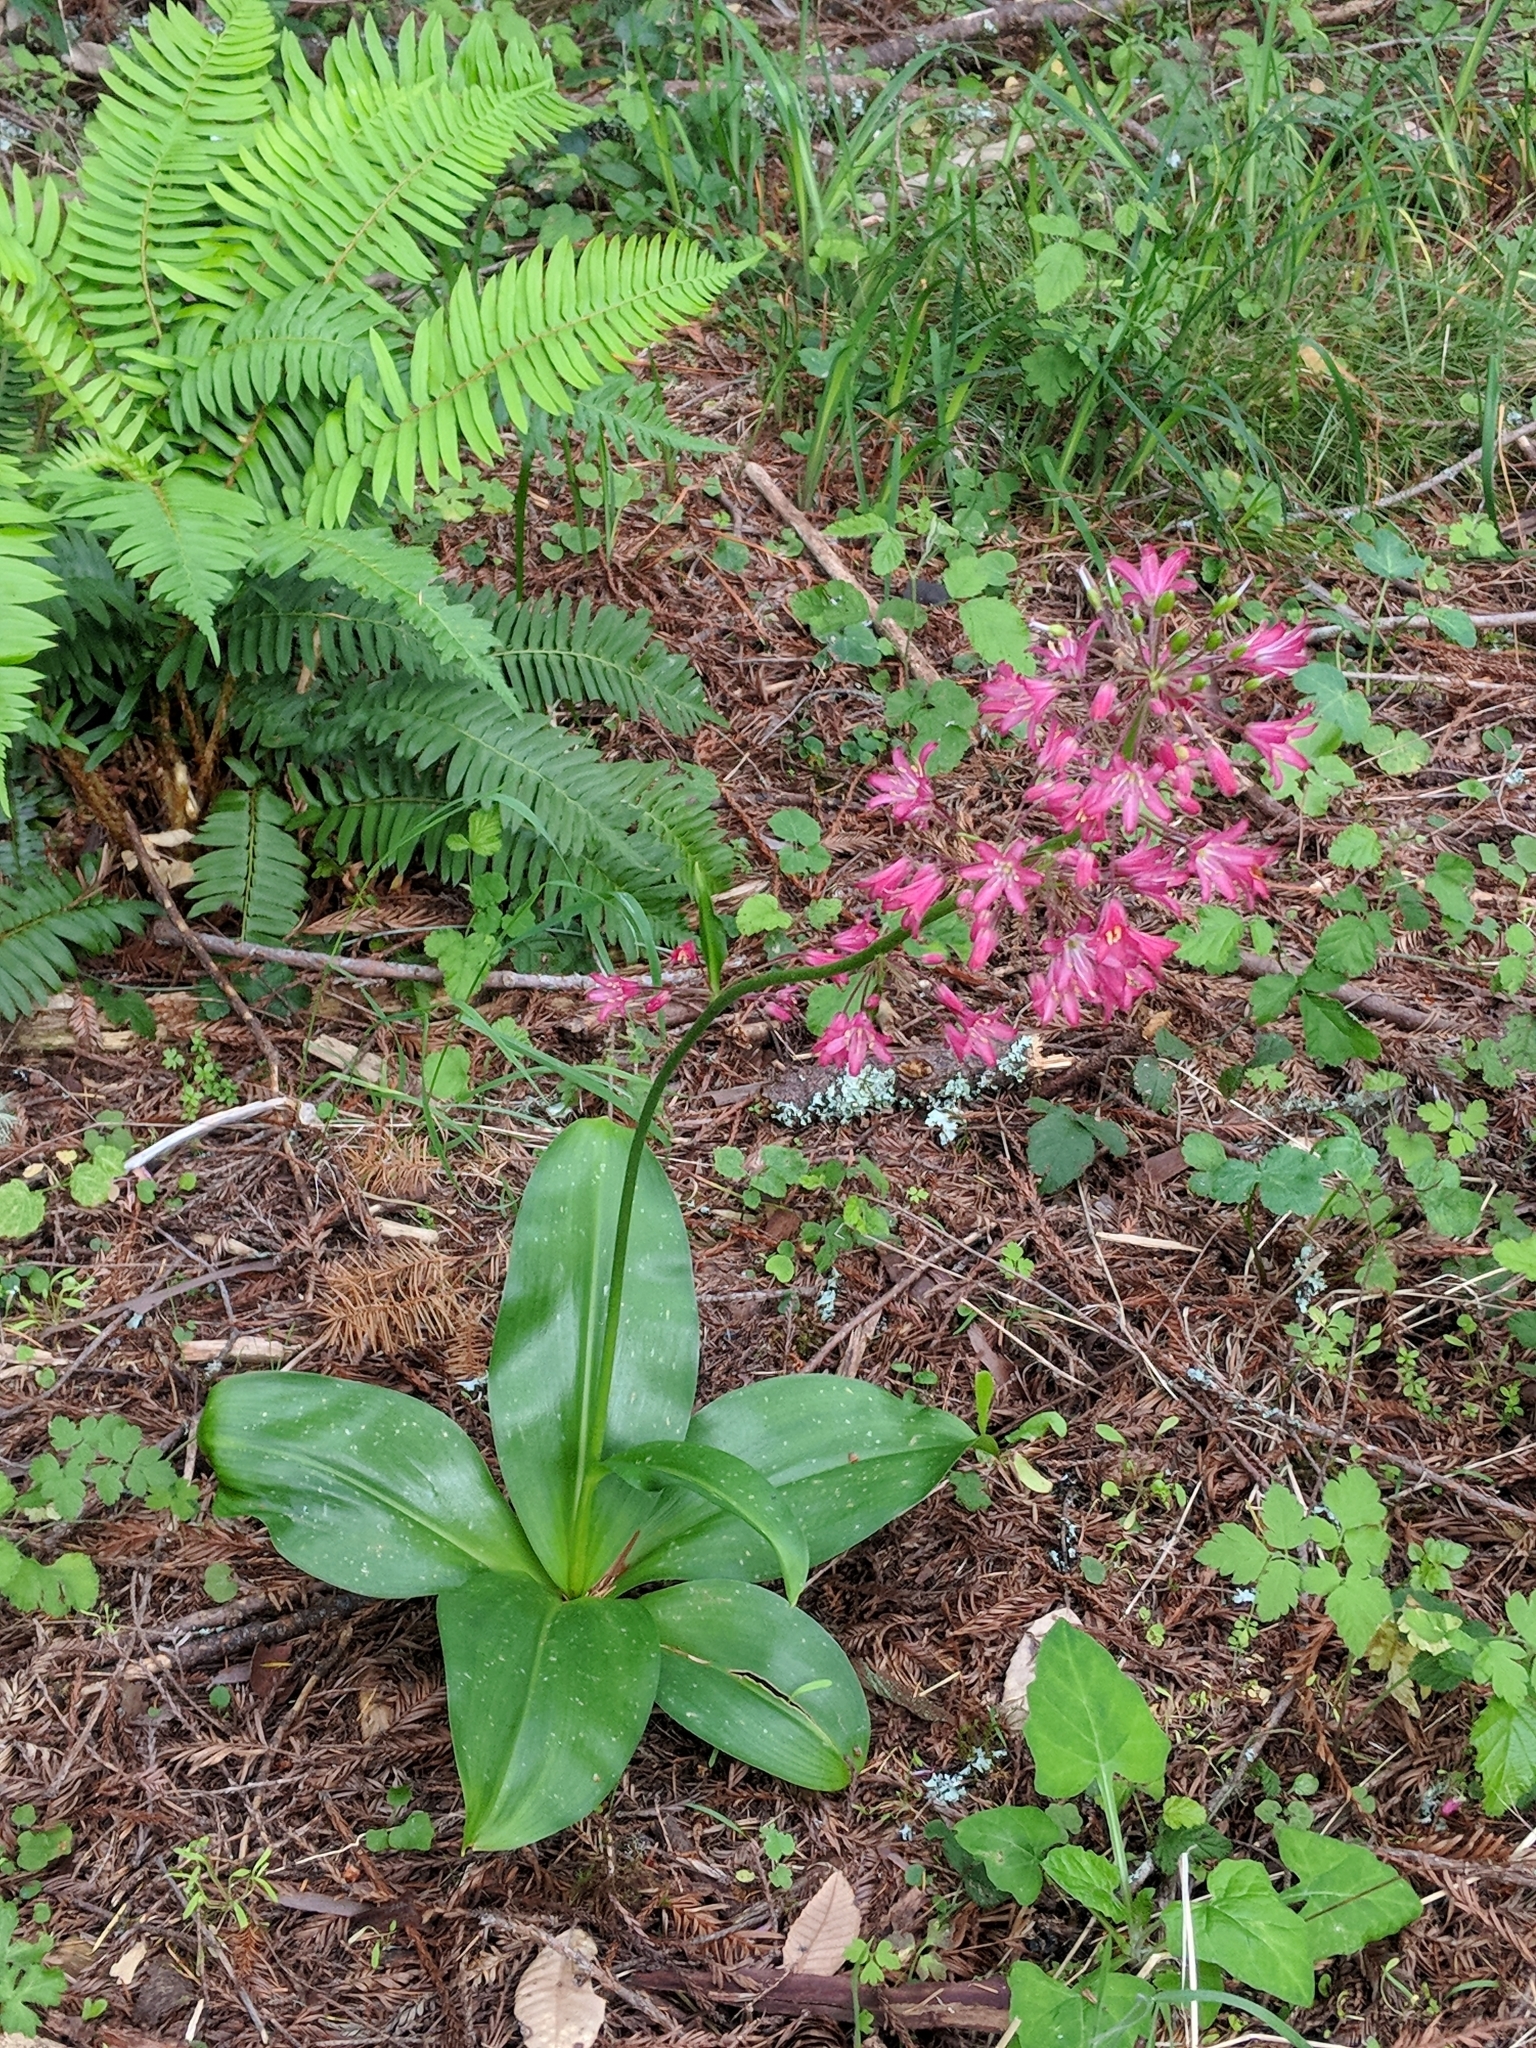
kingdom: Plantae
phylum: Tracheophyta
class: Liliopsida
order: Liliales
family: Liliaceae
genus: Clintonia
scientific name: Clintonia andrewsiana
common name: Red clintonia
